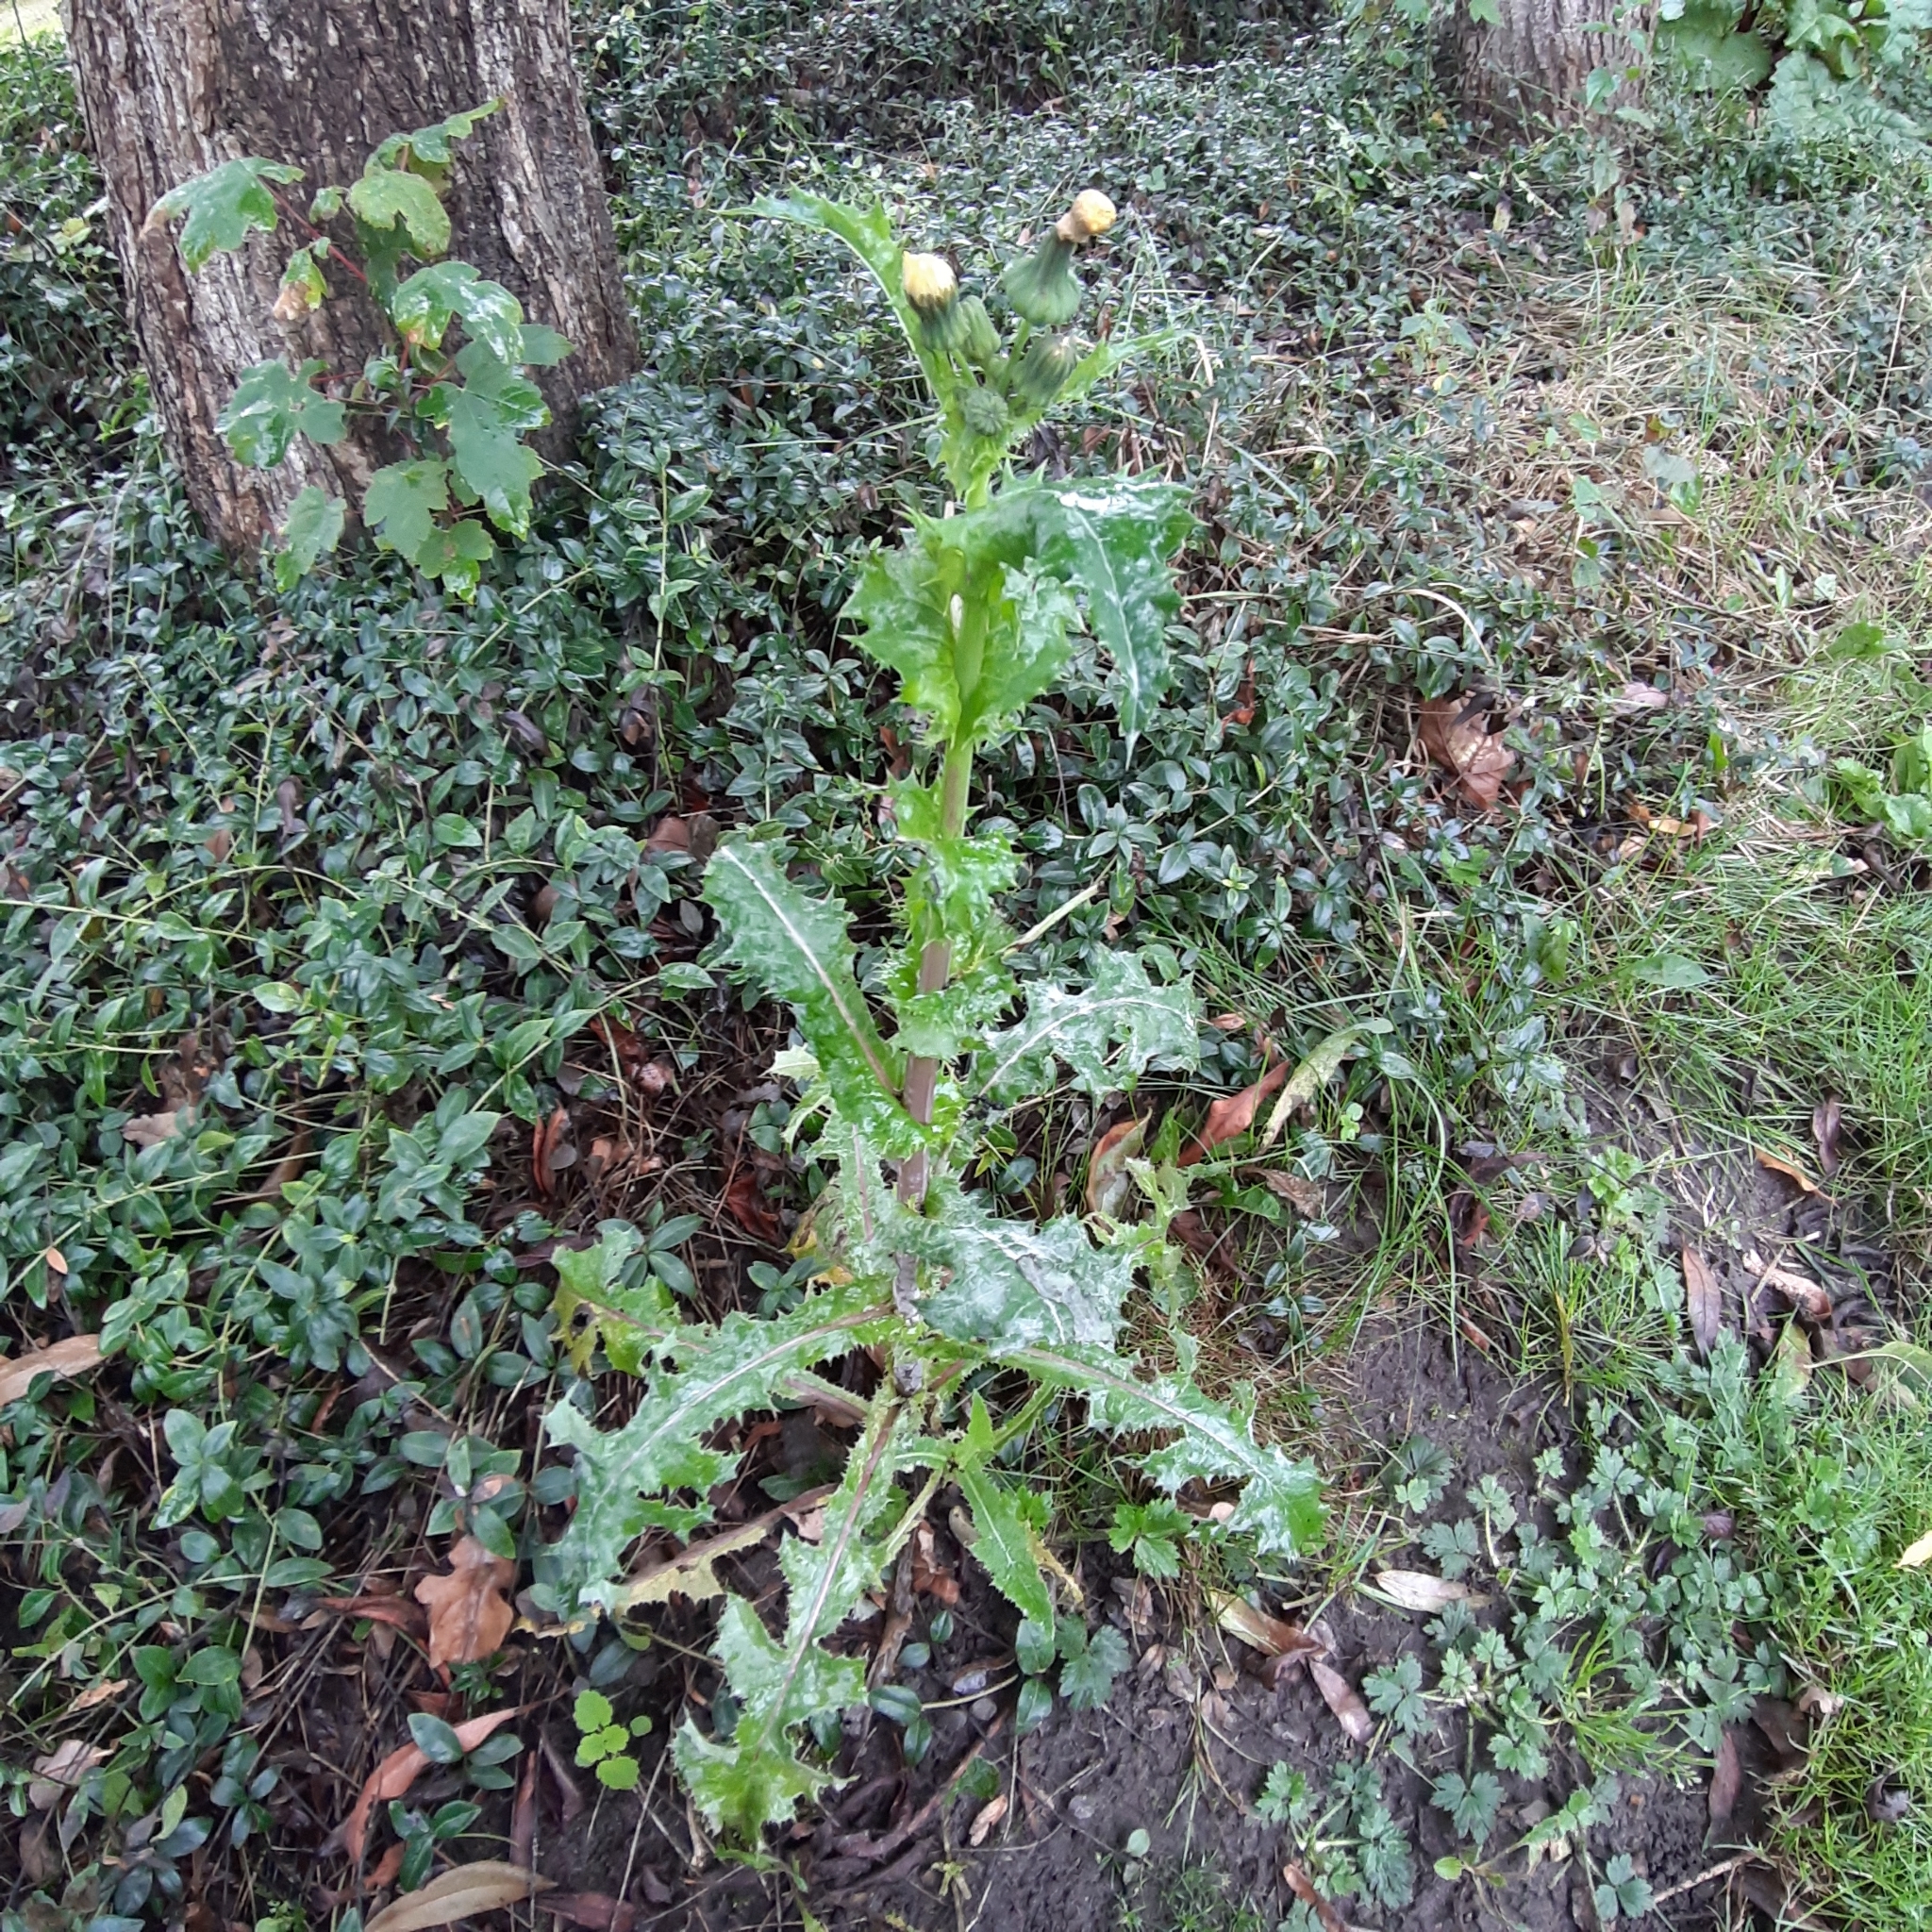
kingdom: Plantae
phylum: Tracheophyta
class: Magnoliopsida
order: Asterales
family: Asteraceae
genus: Sonchus
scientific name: Sonchus asper
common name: Prickly sow-thistle
